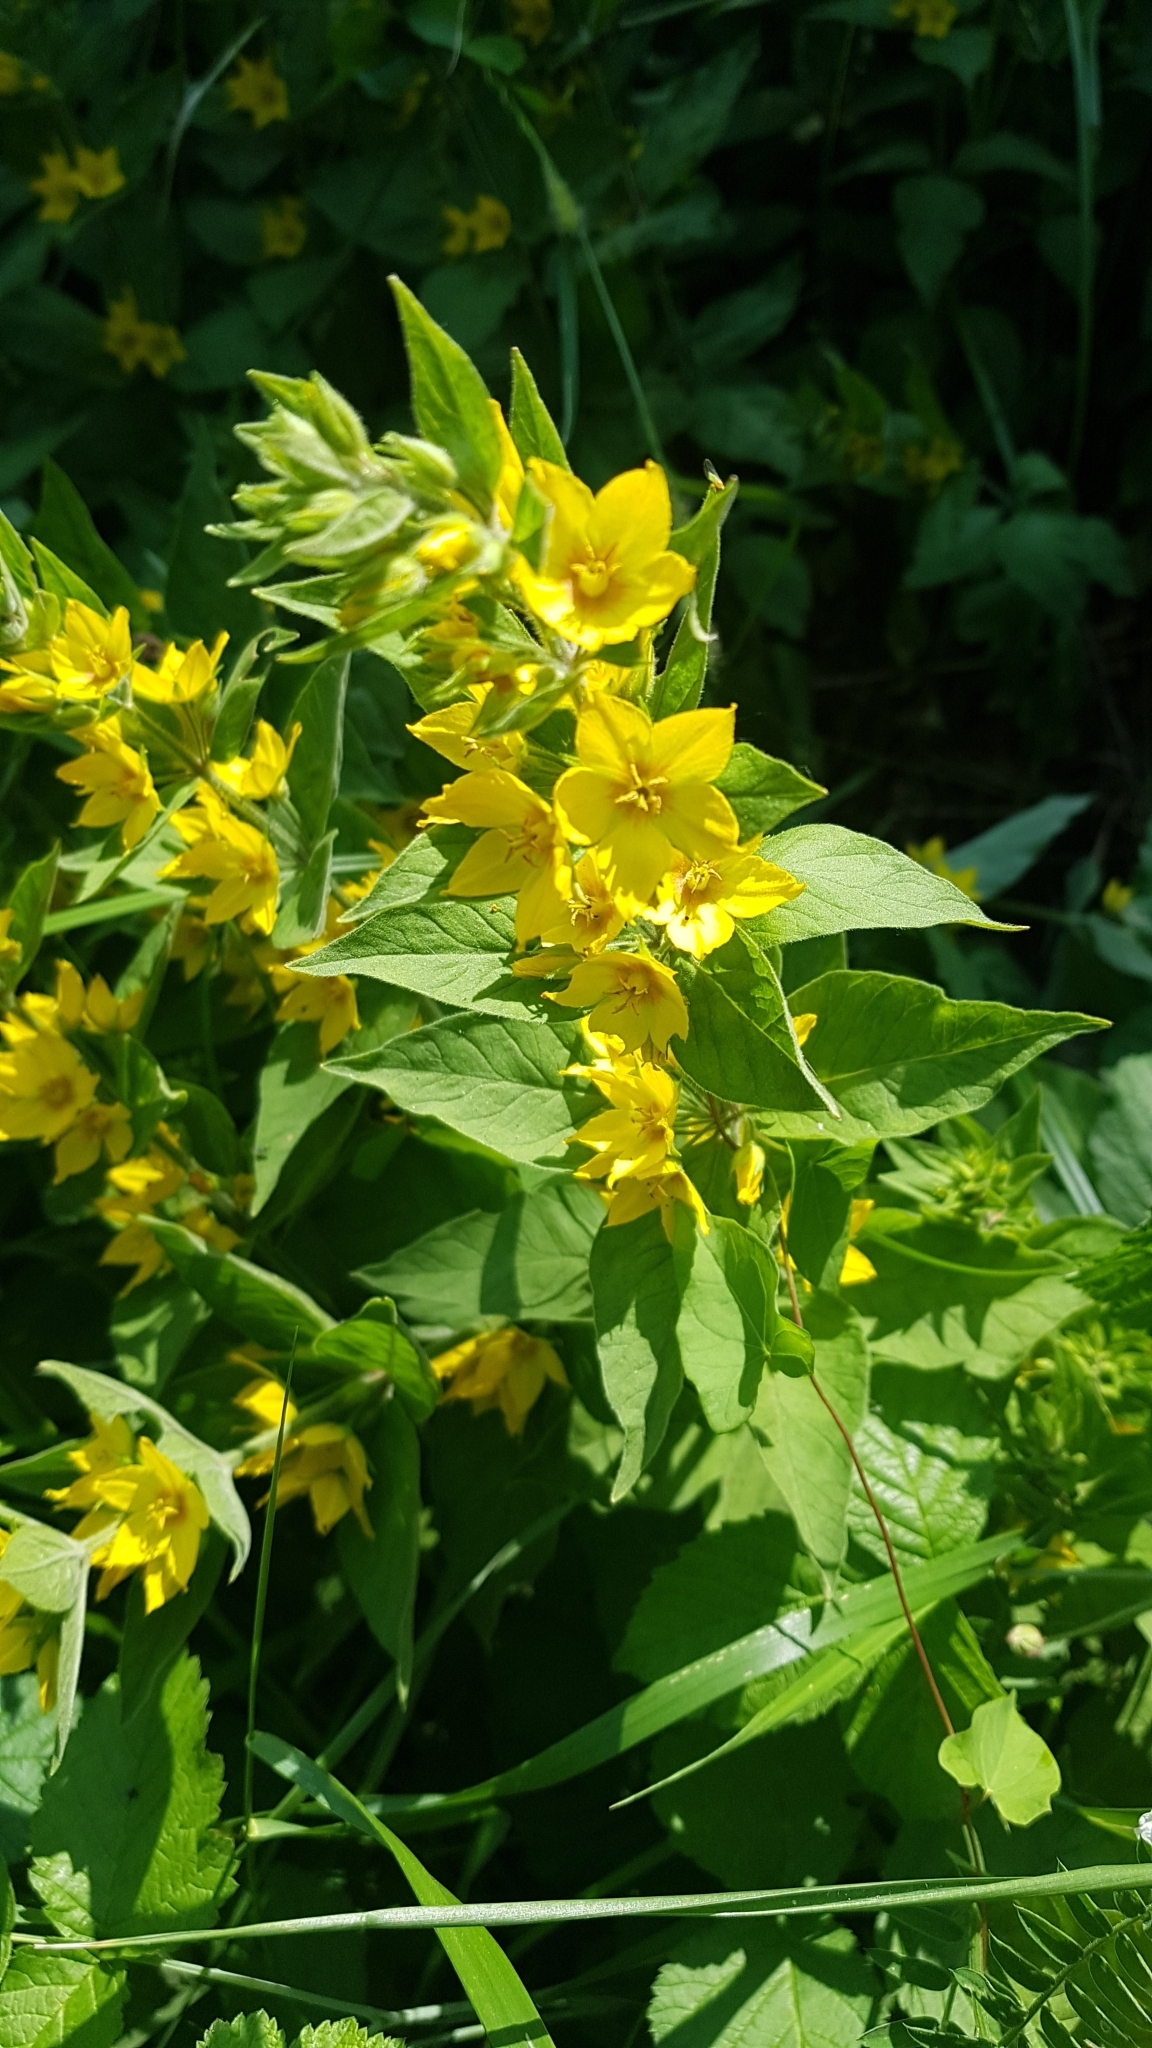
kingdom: Plantae
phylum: Tracheophyta
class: Magnoliopsida
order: Ericales
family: Primulaceae
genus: Lysimachia
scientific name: Lysimachia punctata
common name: Dotted loosestrife
